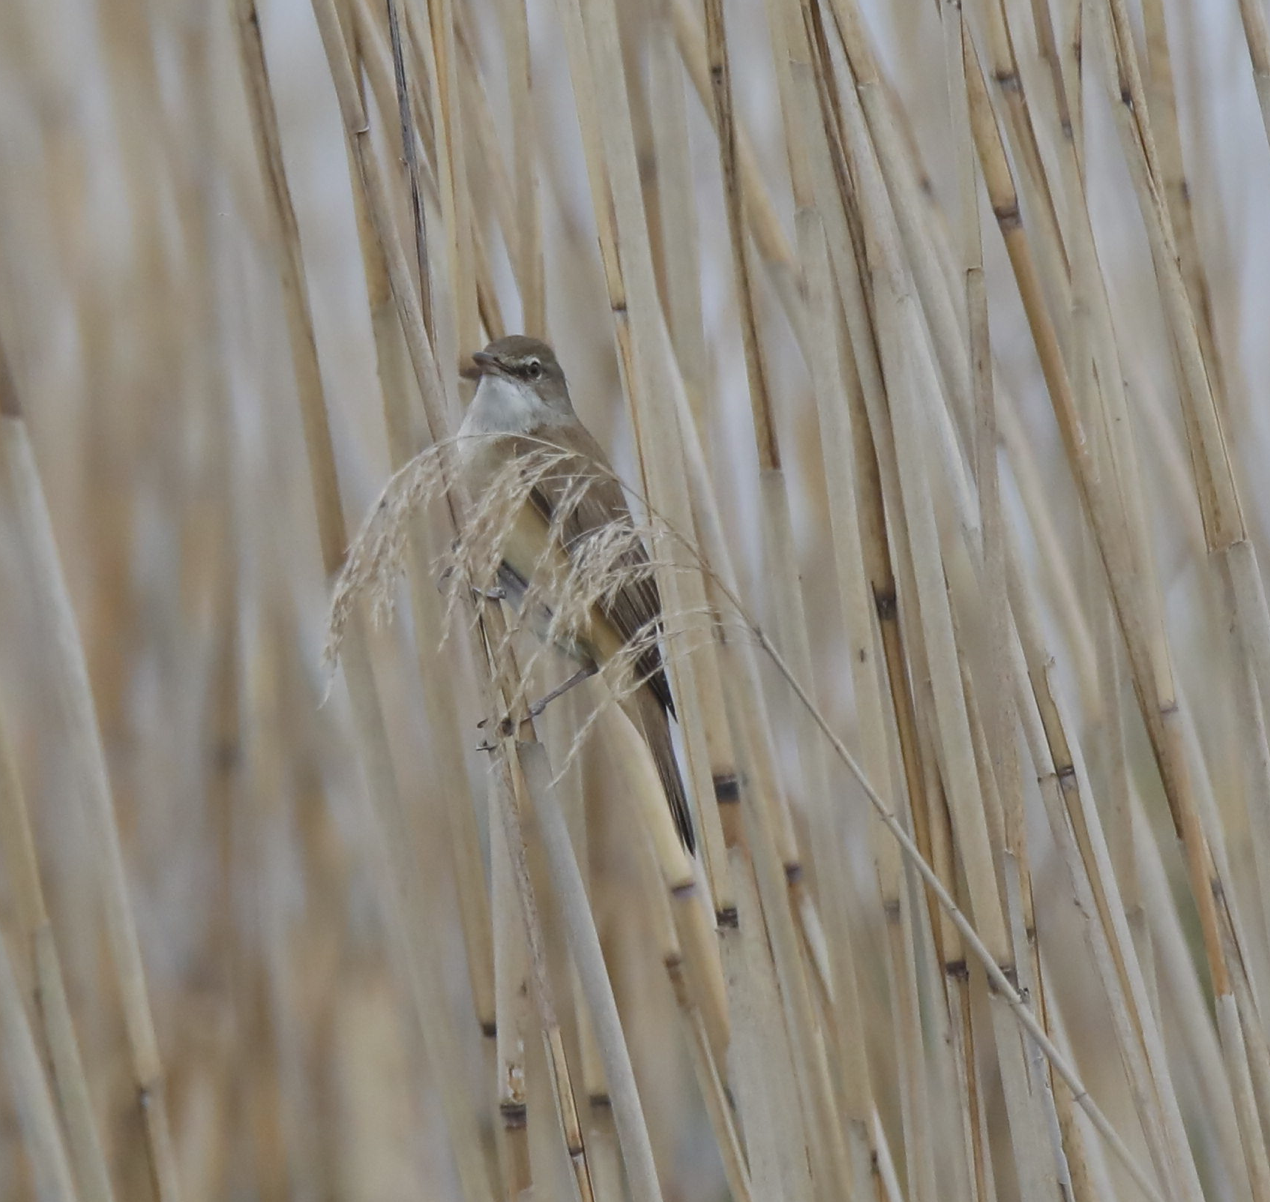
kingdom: Animalia
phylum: Chordata
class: Aves
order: Passeriformes
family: Acrocephalidae
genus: Acrocephalus
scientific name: Acrocephalus arundinaceus
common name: Great reed warbler
